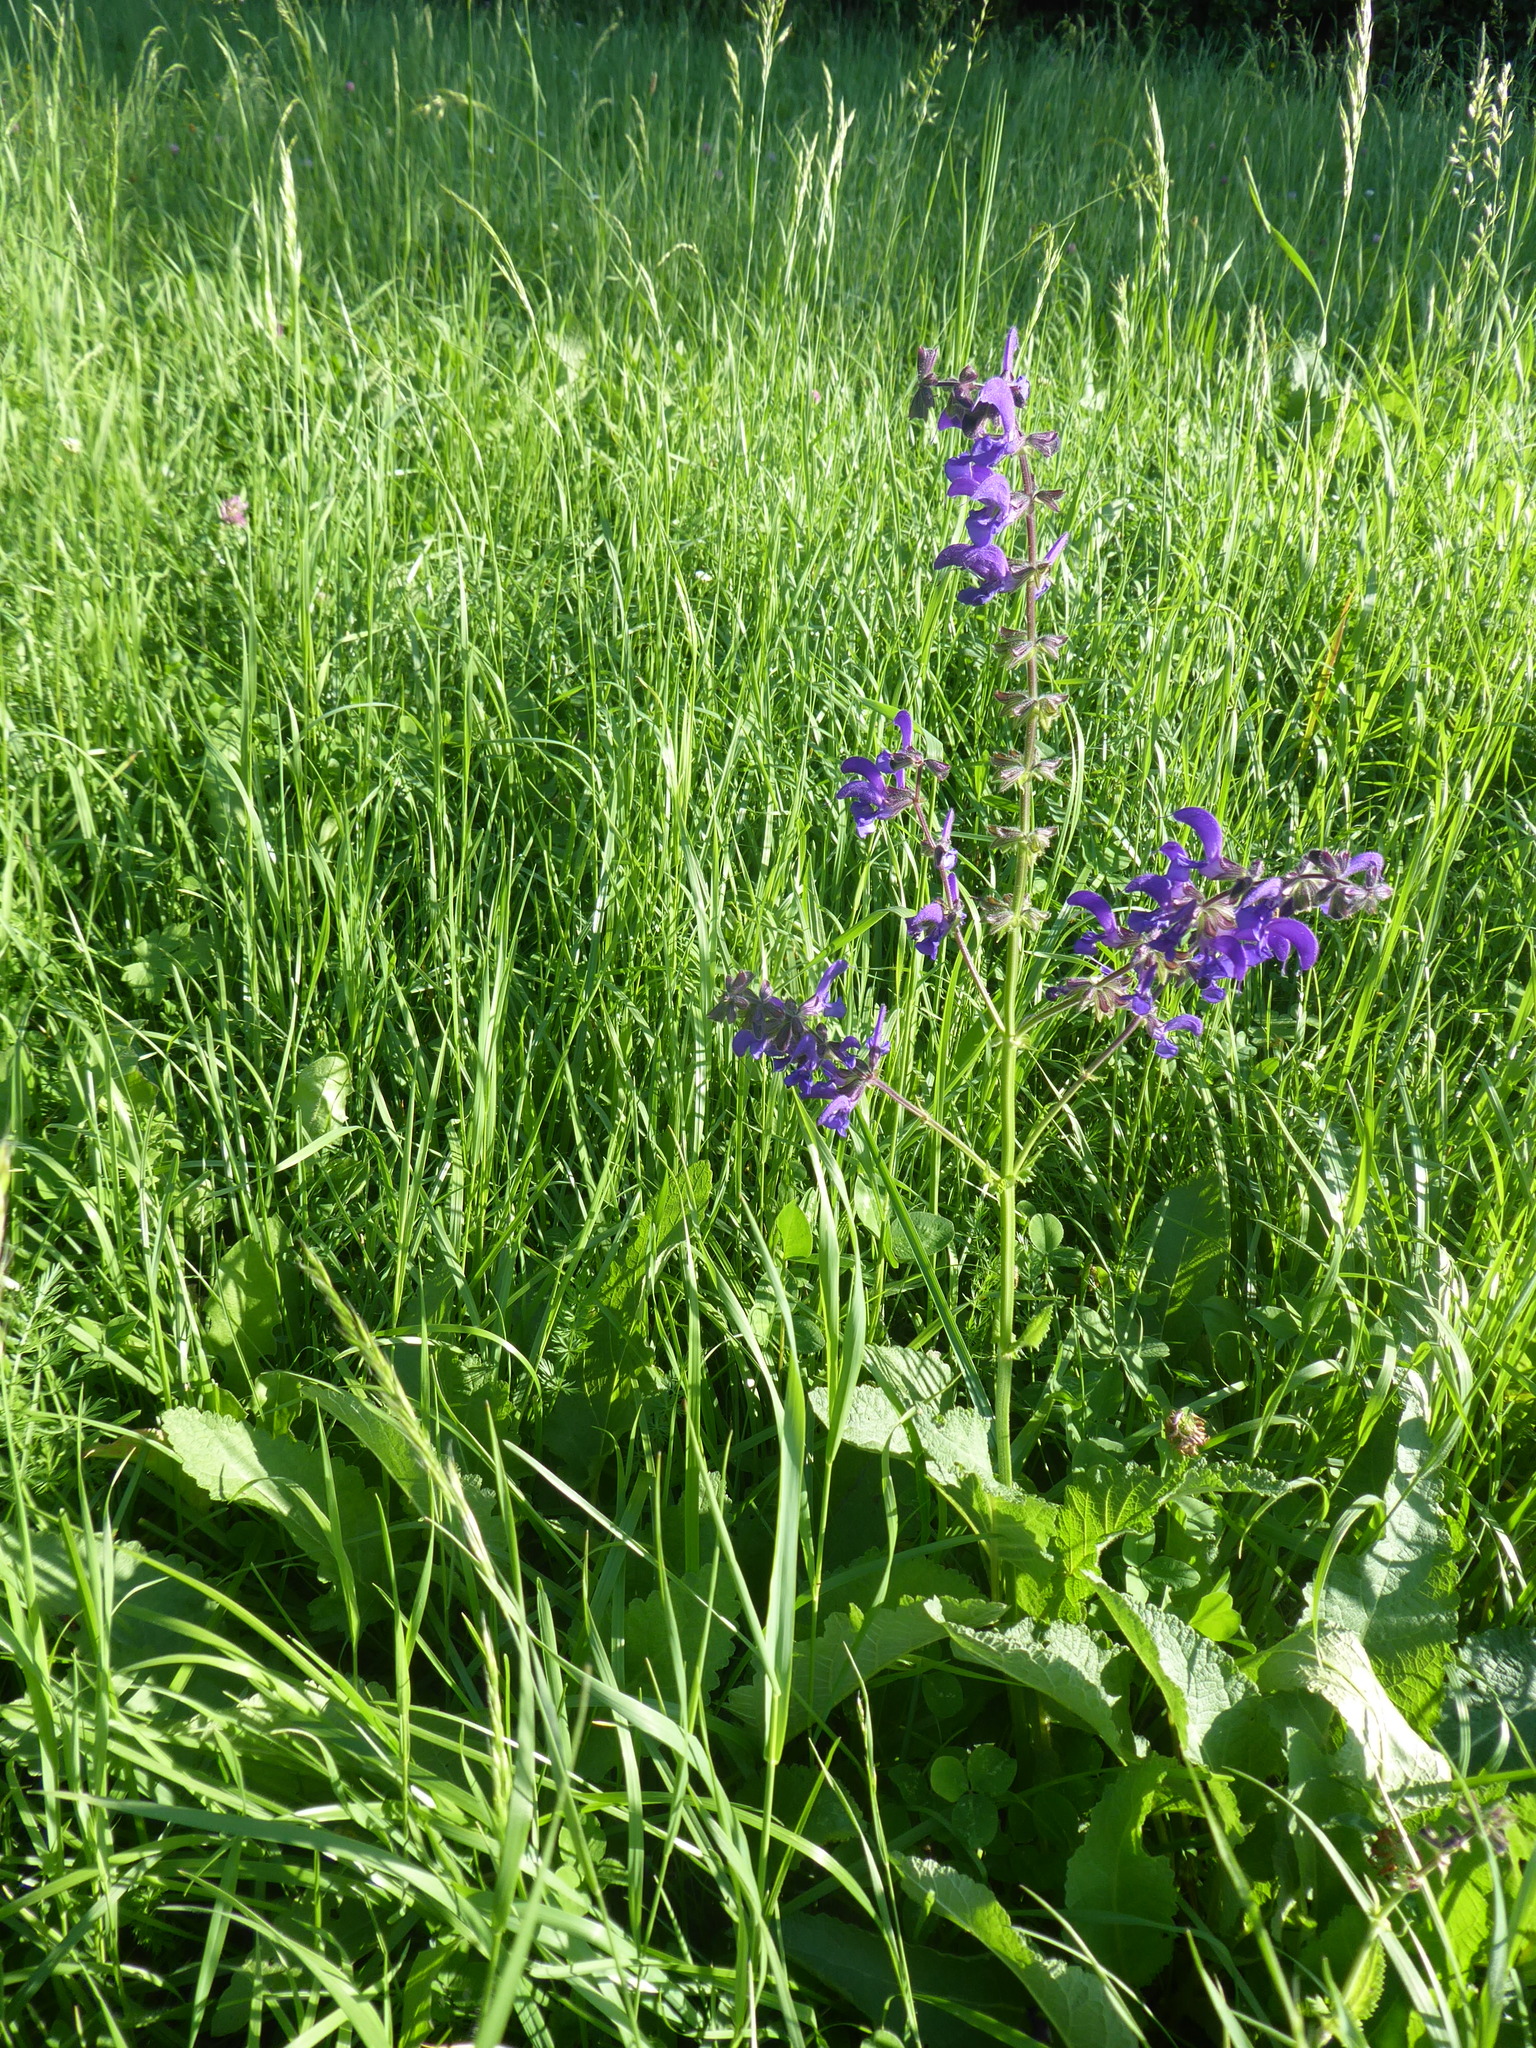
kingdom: Plantae
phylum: Tracheophyta
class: Magnoliopsida
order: Lamiales
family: Lamiaceae
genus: Salvia
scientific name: Salvia pratensis
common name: Meadow sage
